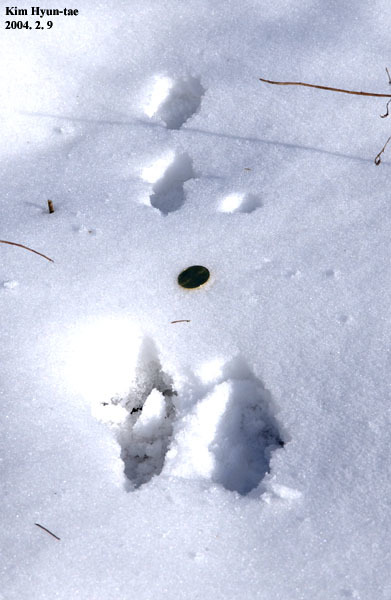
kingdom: Animalia
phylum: Chordata
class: Mammalia
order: Lagomorpha
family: Leporidae
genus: Lepus
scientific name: Lepus coreanus
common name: Korean hare
